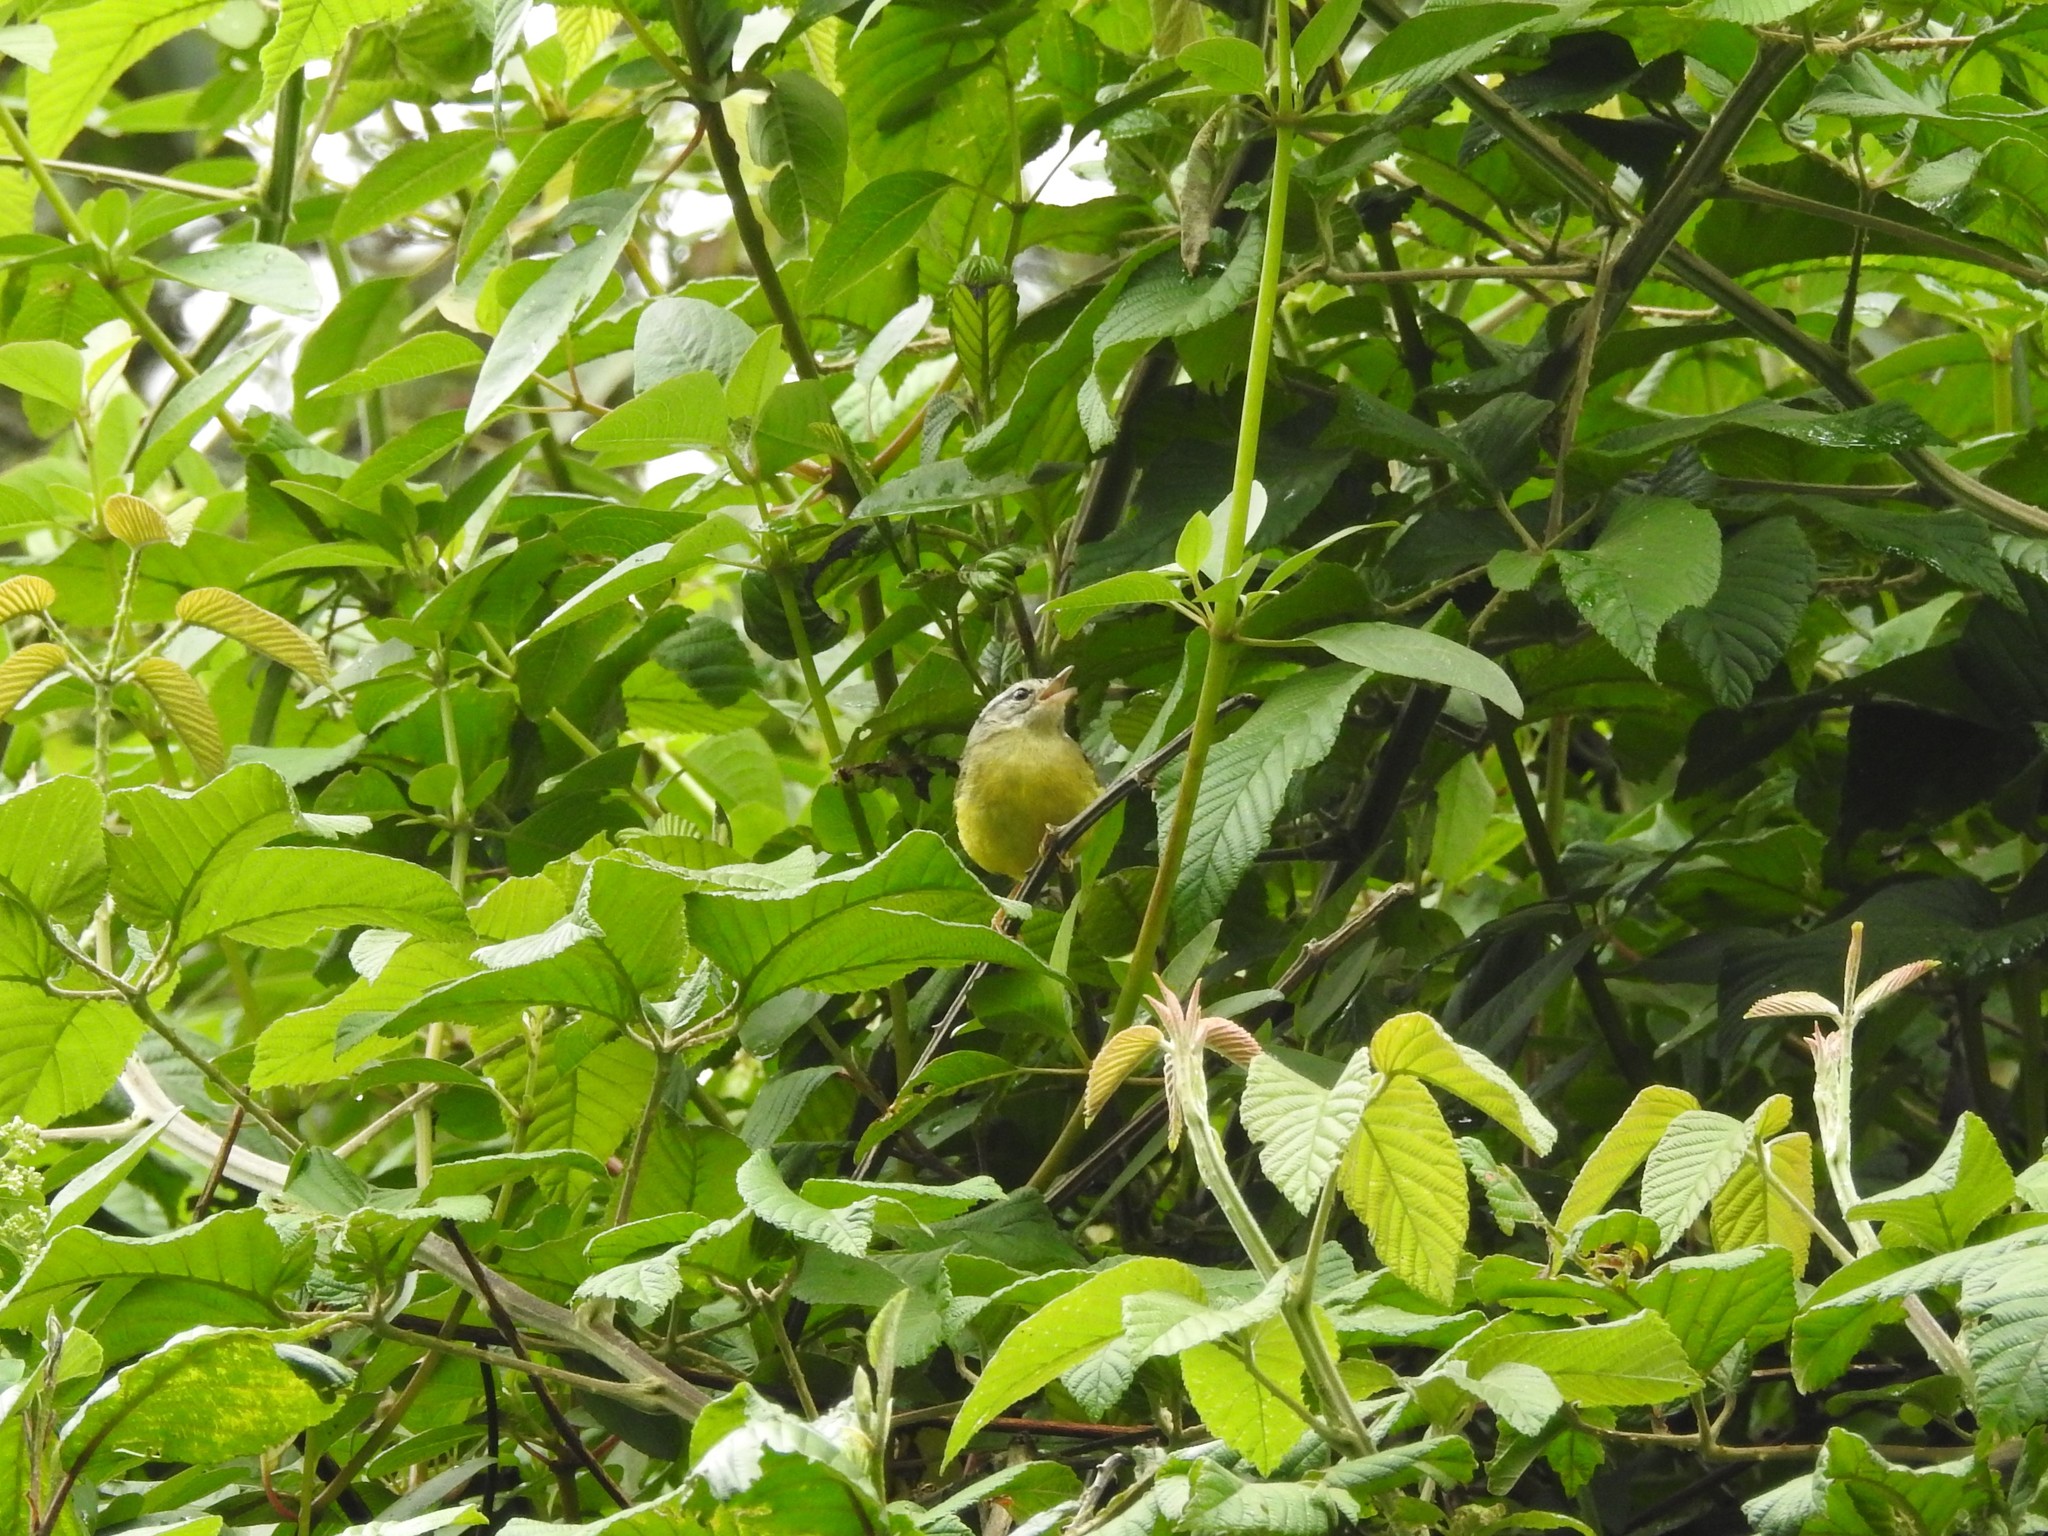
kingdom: Animalia
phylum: Chordata
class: Aves
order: Passeriformes
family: Parulidae
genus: Basileuterus
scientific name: Basileuterus trifasciatus
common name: Three-banded warbler
